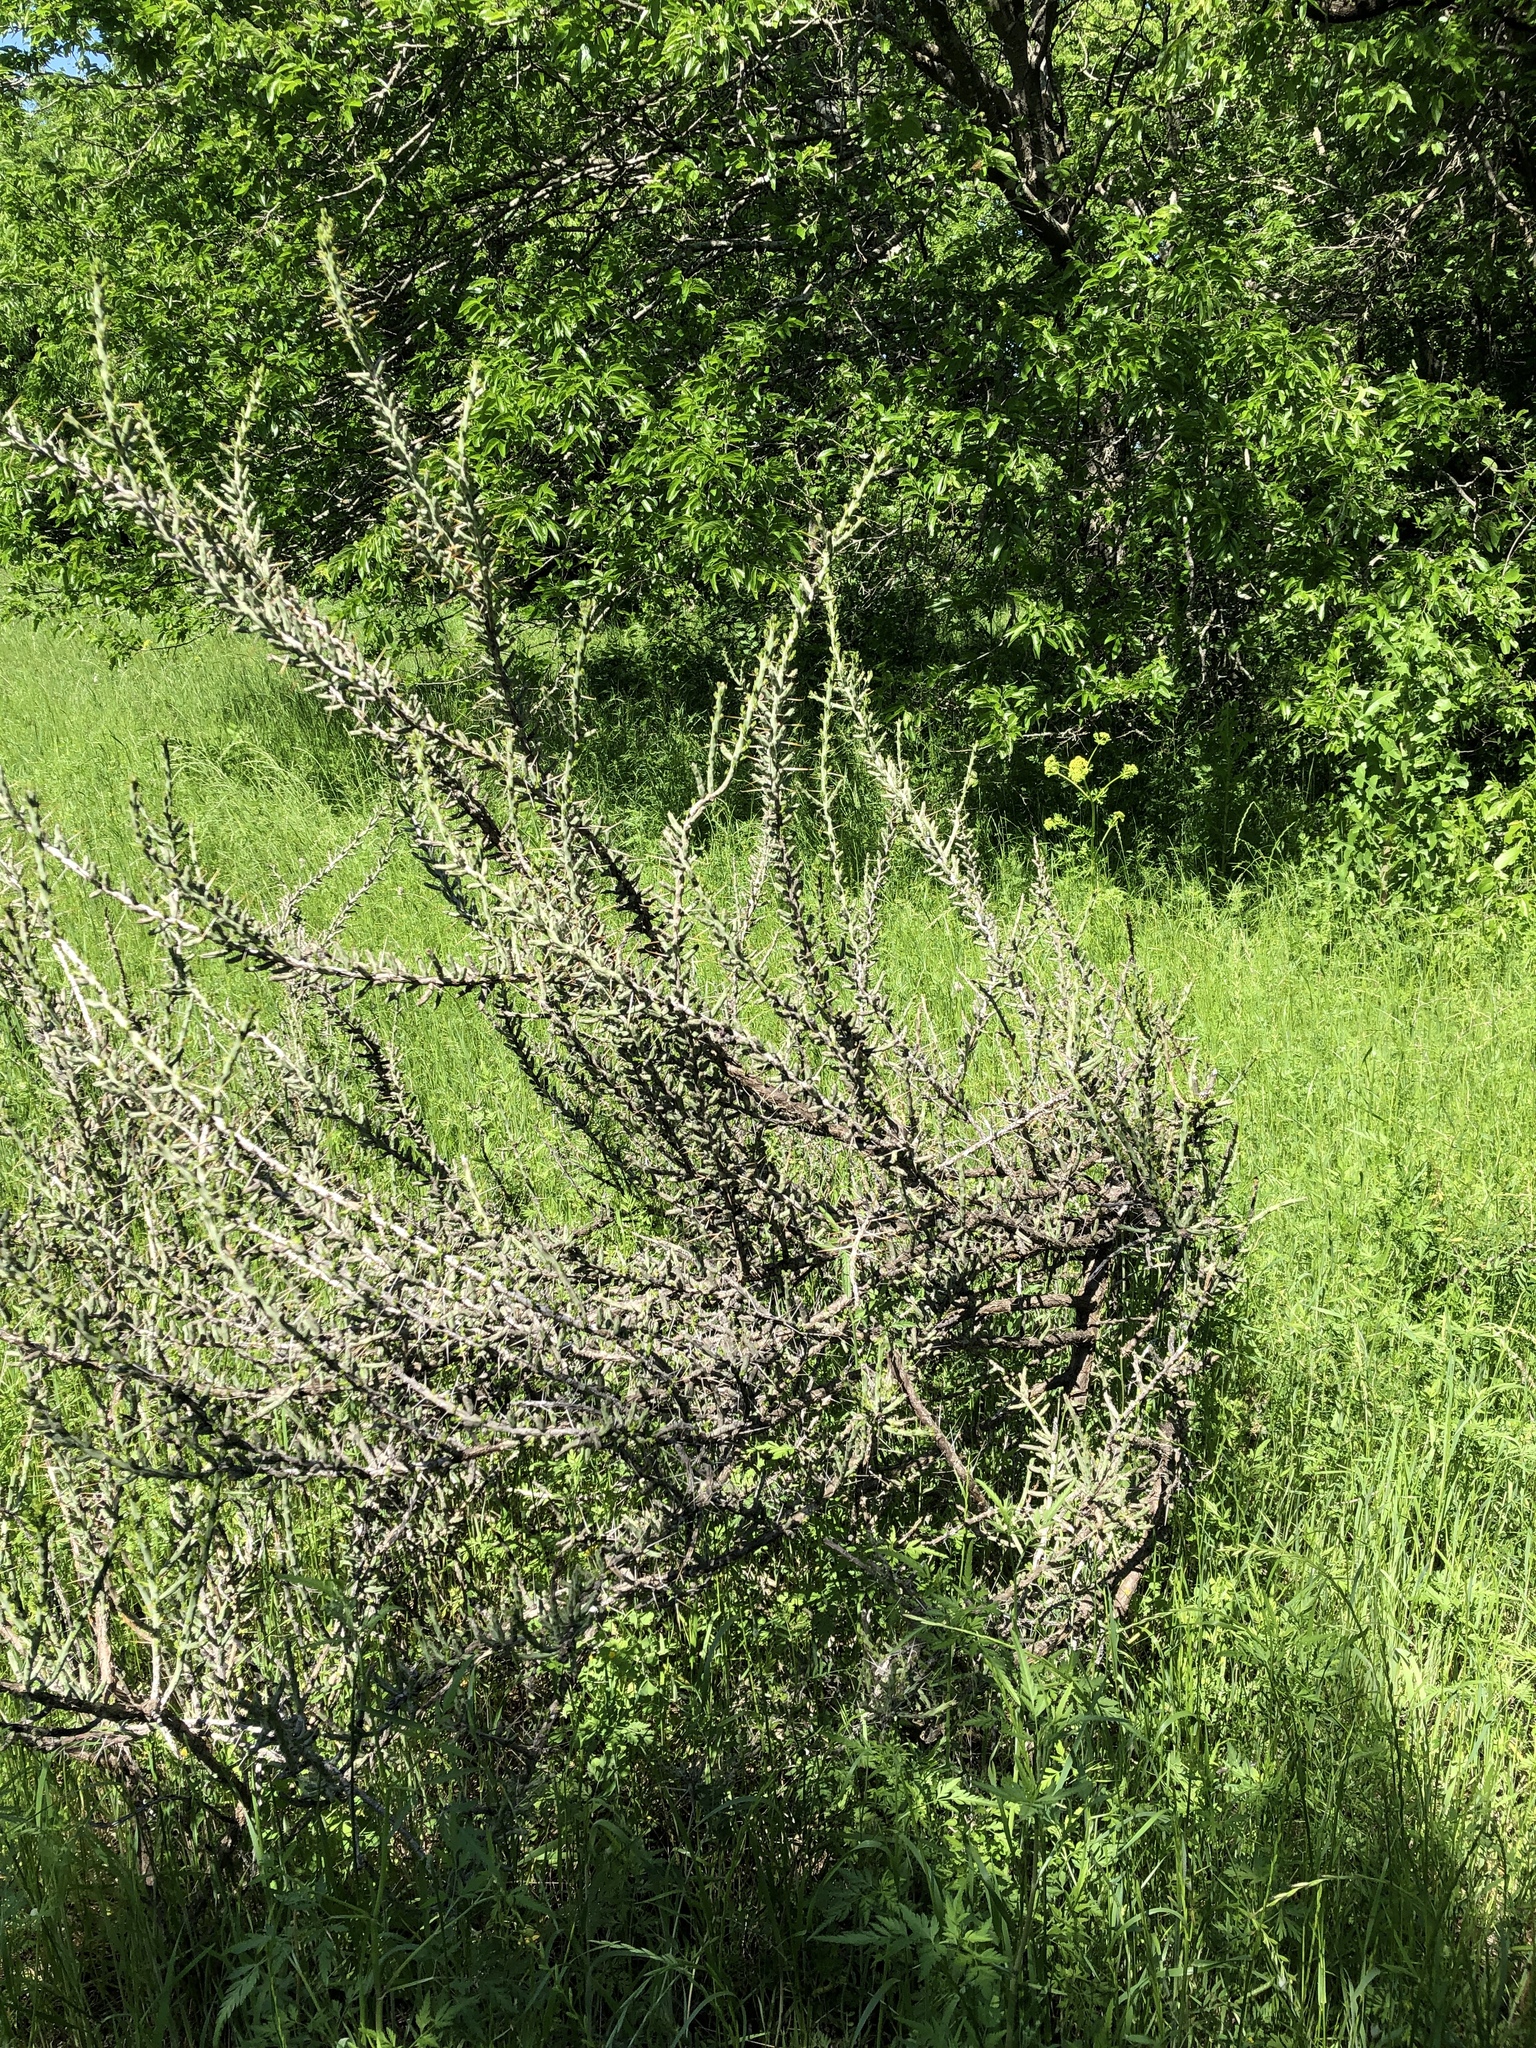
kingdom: Plantae
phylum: Tracheophyta
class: Magnoliopsida
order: Caryophyllales
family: Cactaceae
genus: Cylindropuntia
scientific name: Cylindropuntia leptocaulis
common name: Christmas cactus
